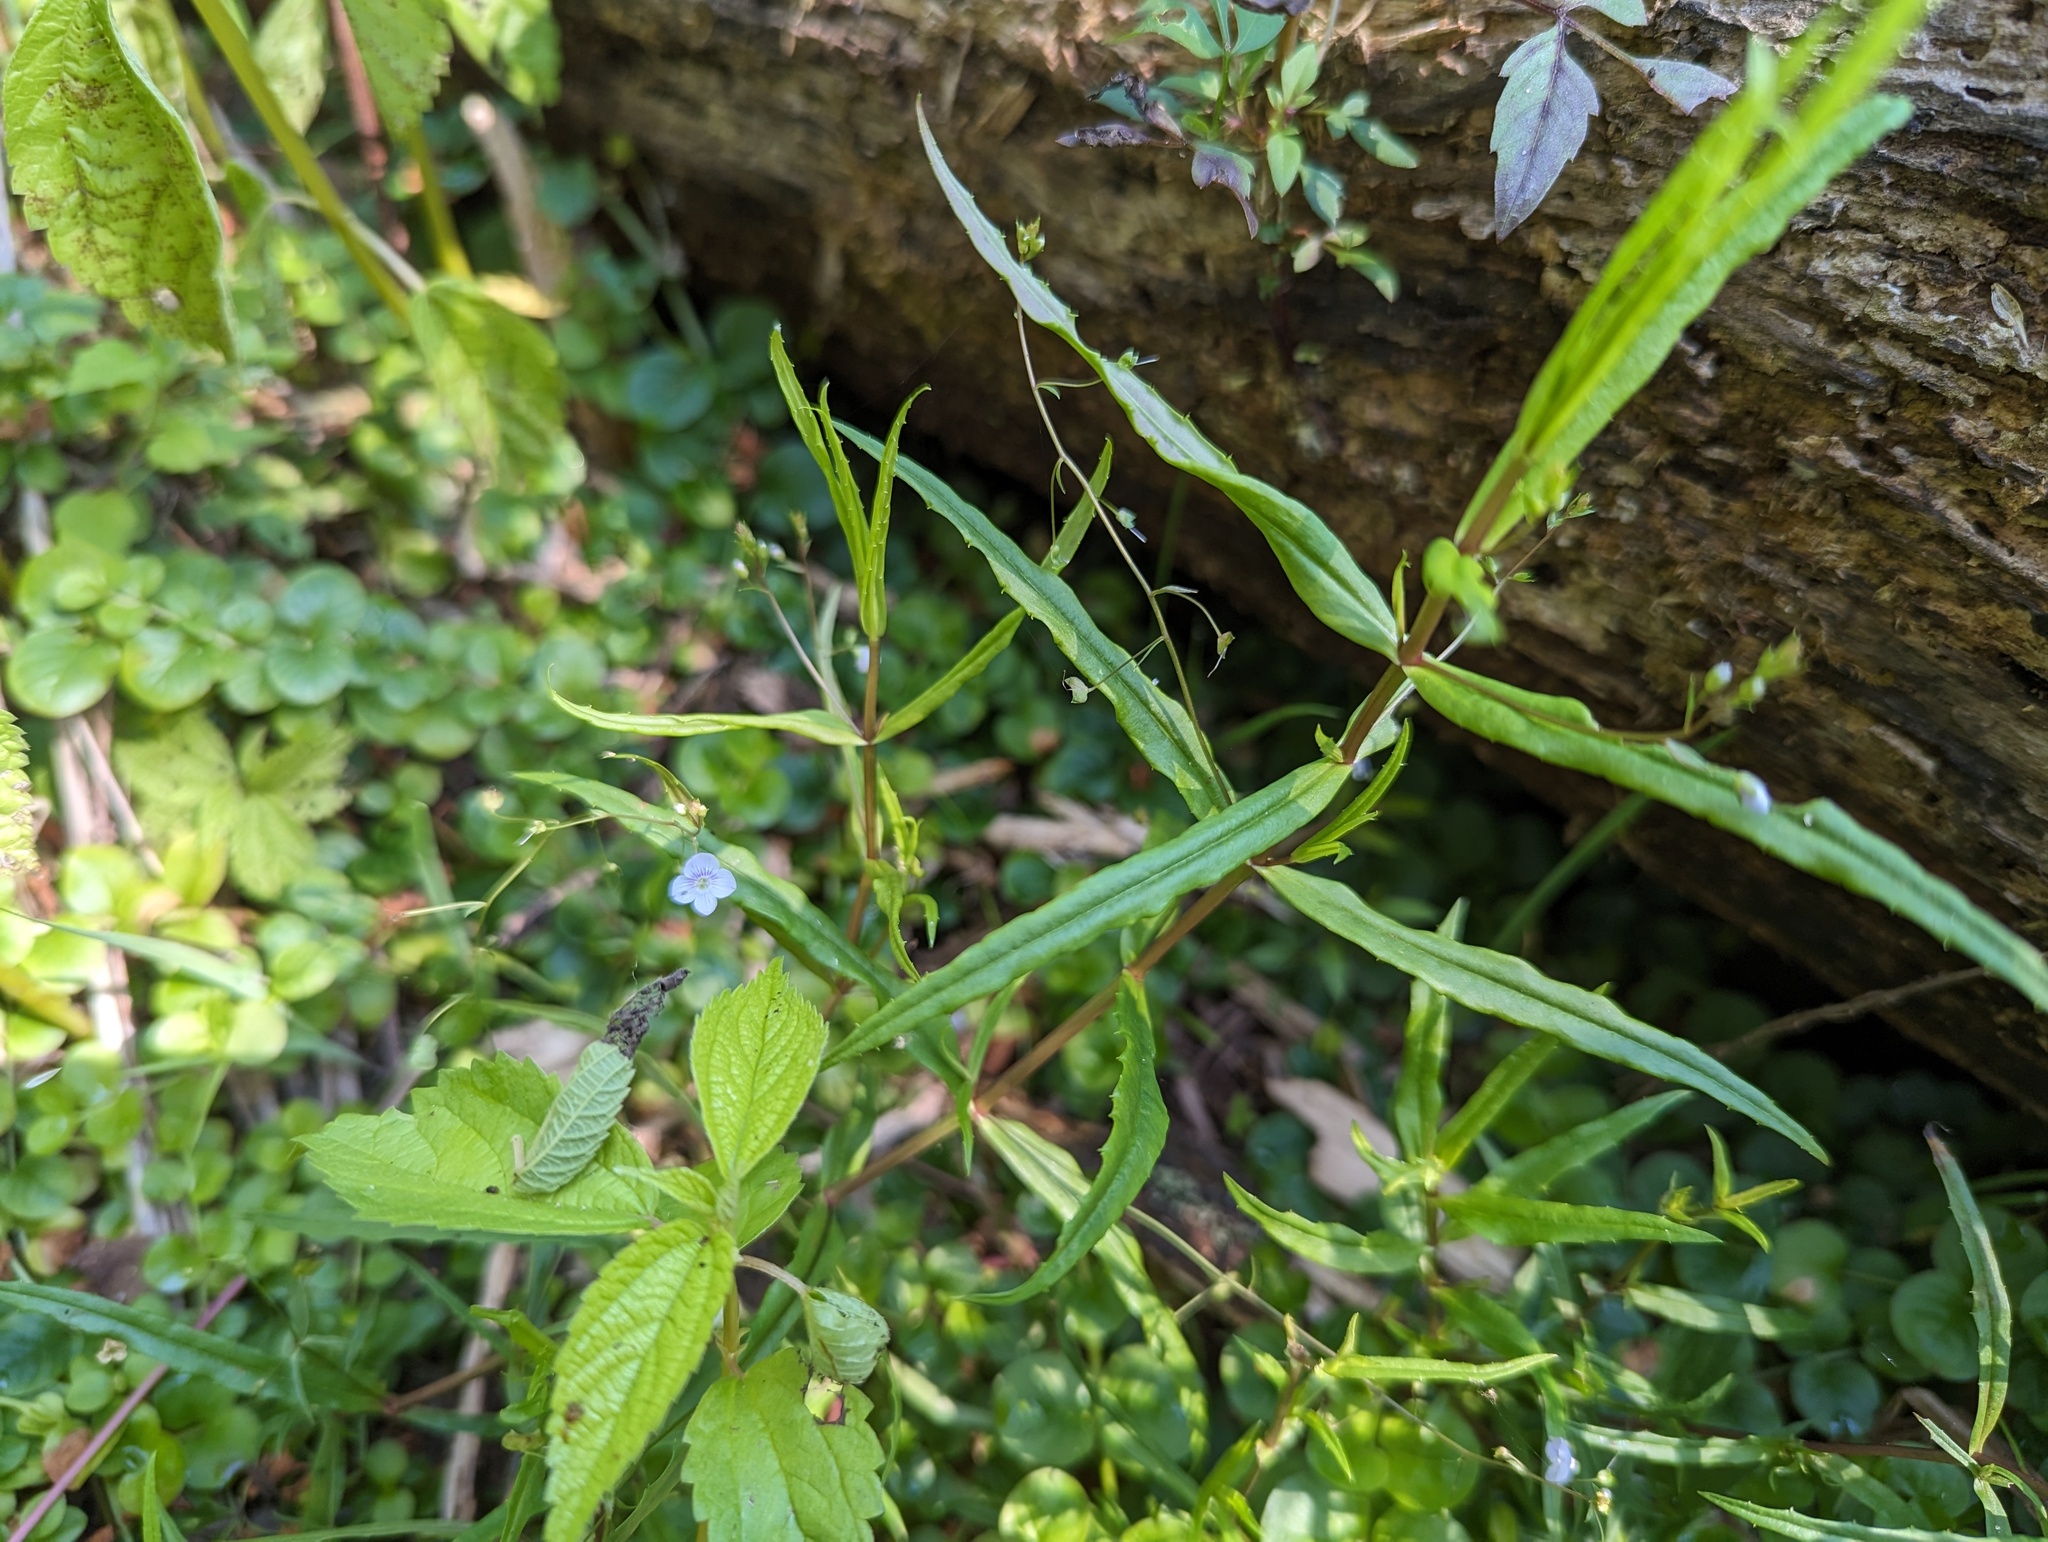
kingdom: Plantae
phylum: Tracheophyta
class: Magnoliopsida
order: Lamiales
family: Plantaginaceae
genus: Veronica
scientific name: Veronica scutellata
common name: Marsh speedwell
